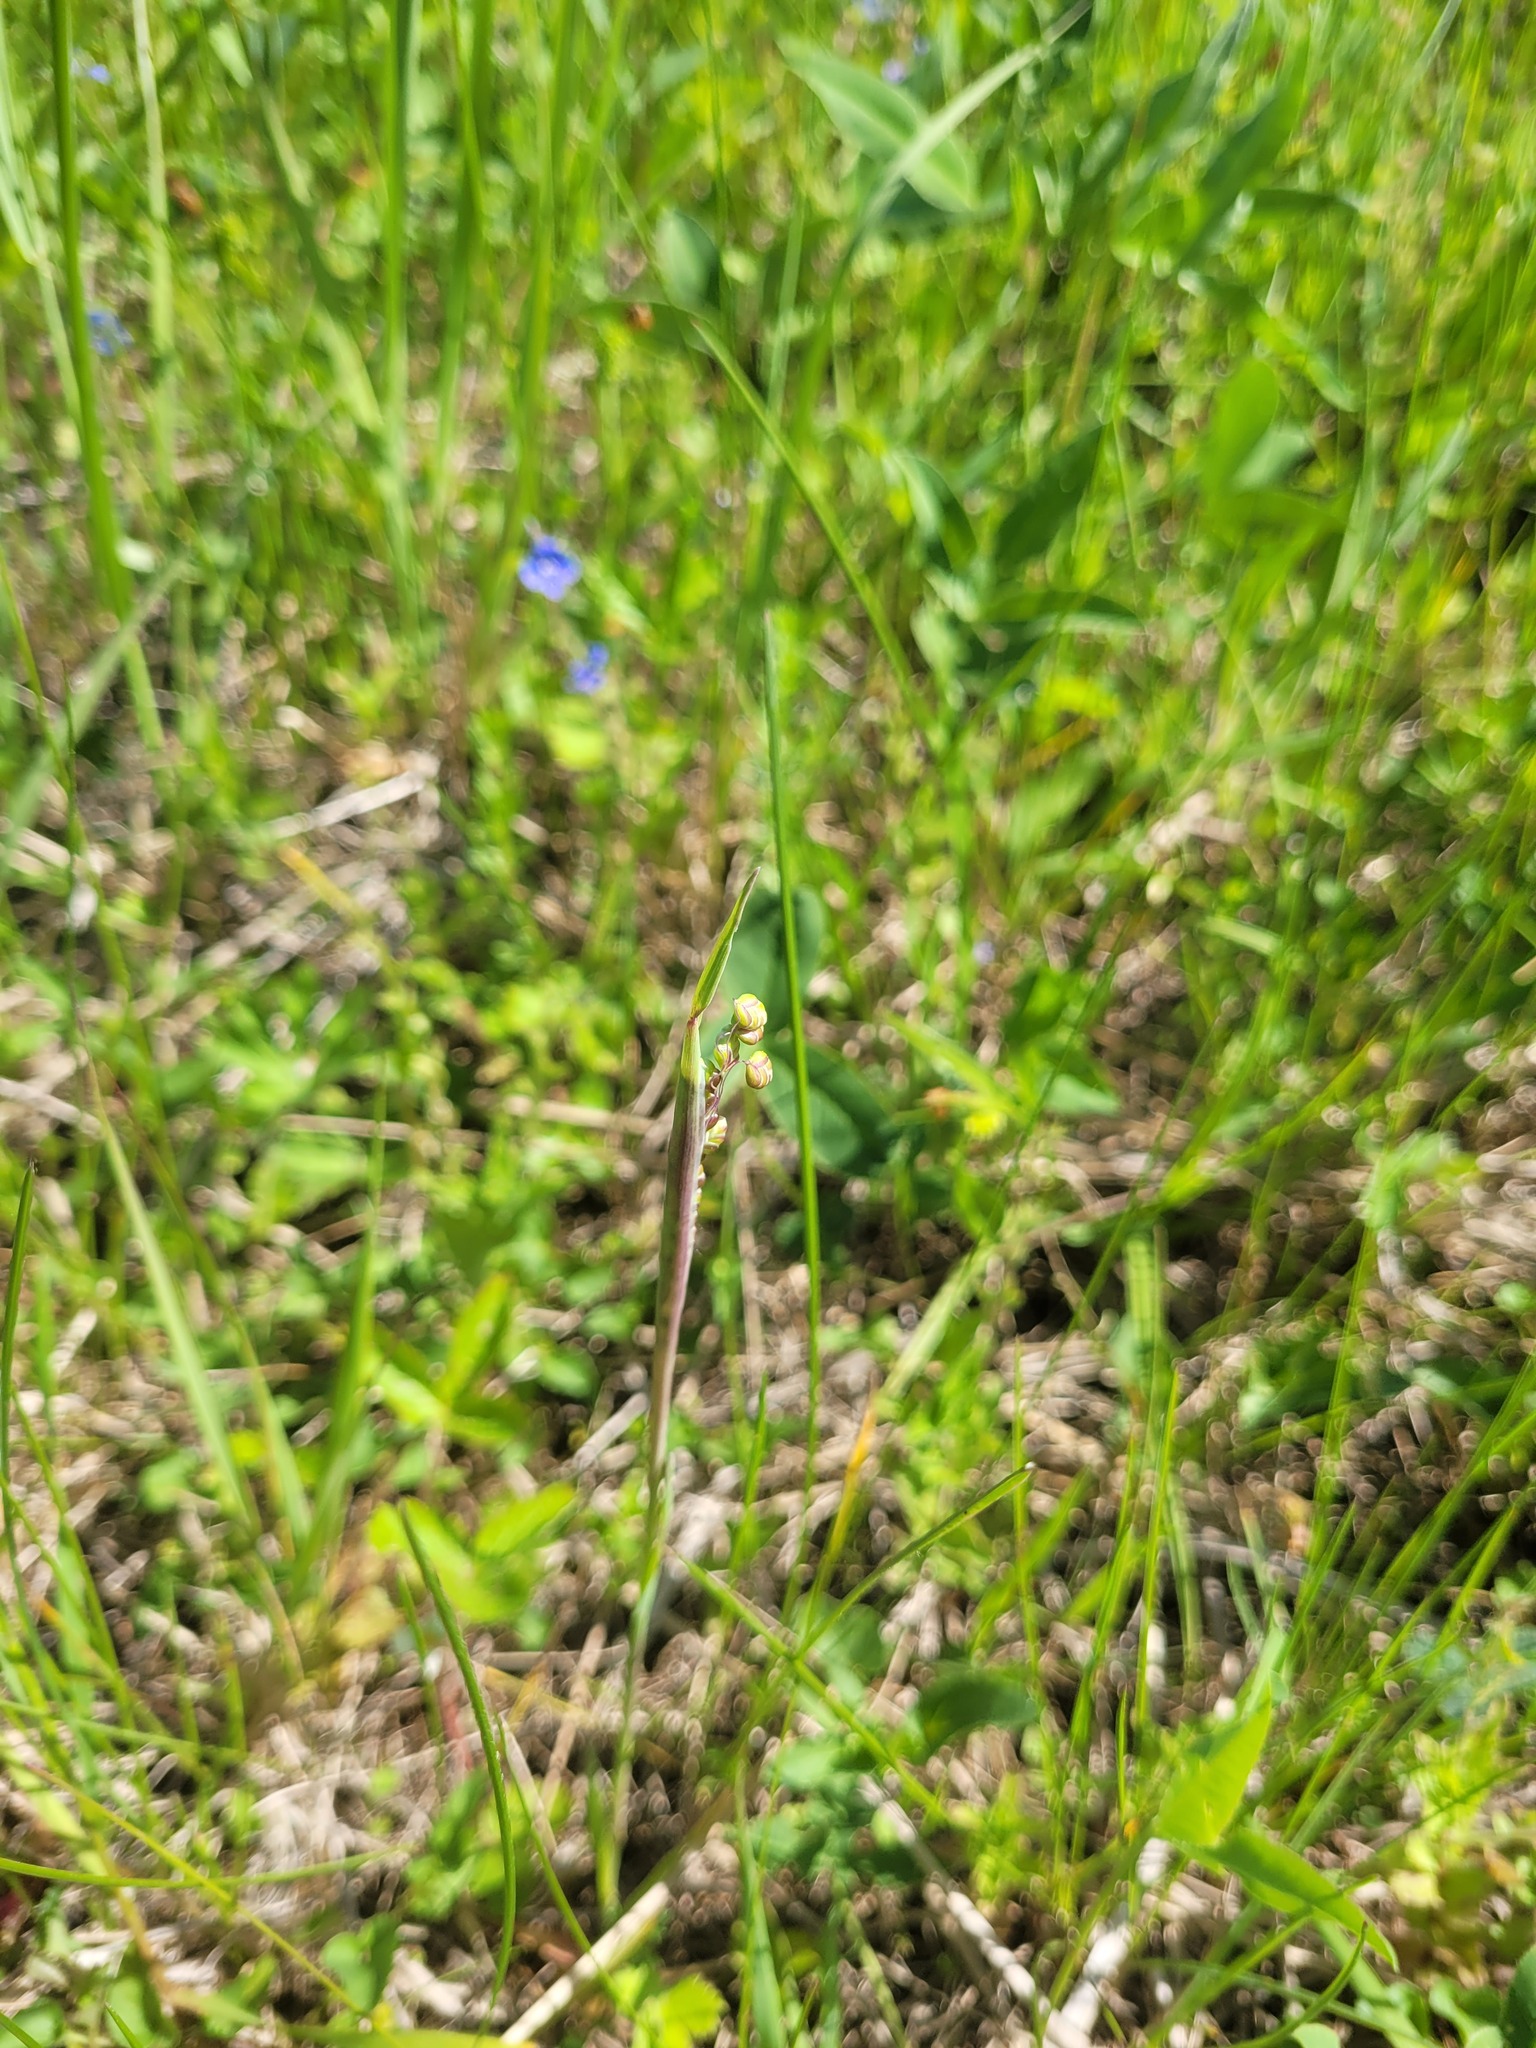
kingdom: Plantae
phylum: Tracheophyta
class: Liliopsida
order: Poales
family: Poaceae
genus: Briza
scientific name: Briza media
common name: Quaking grass
